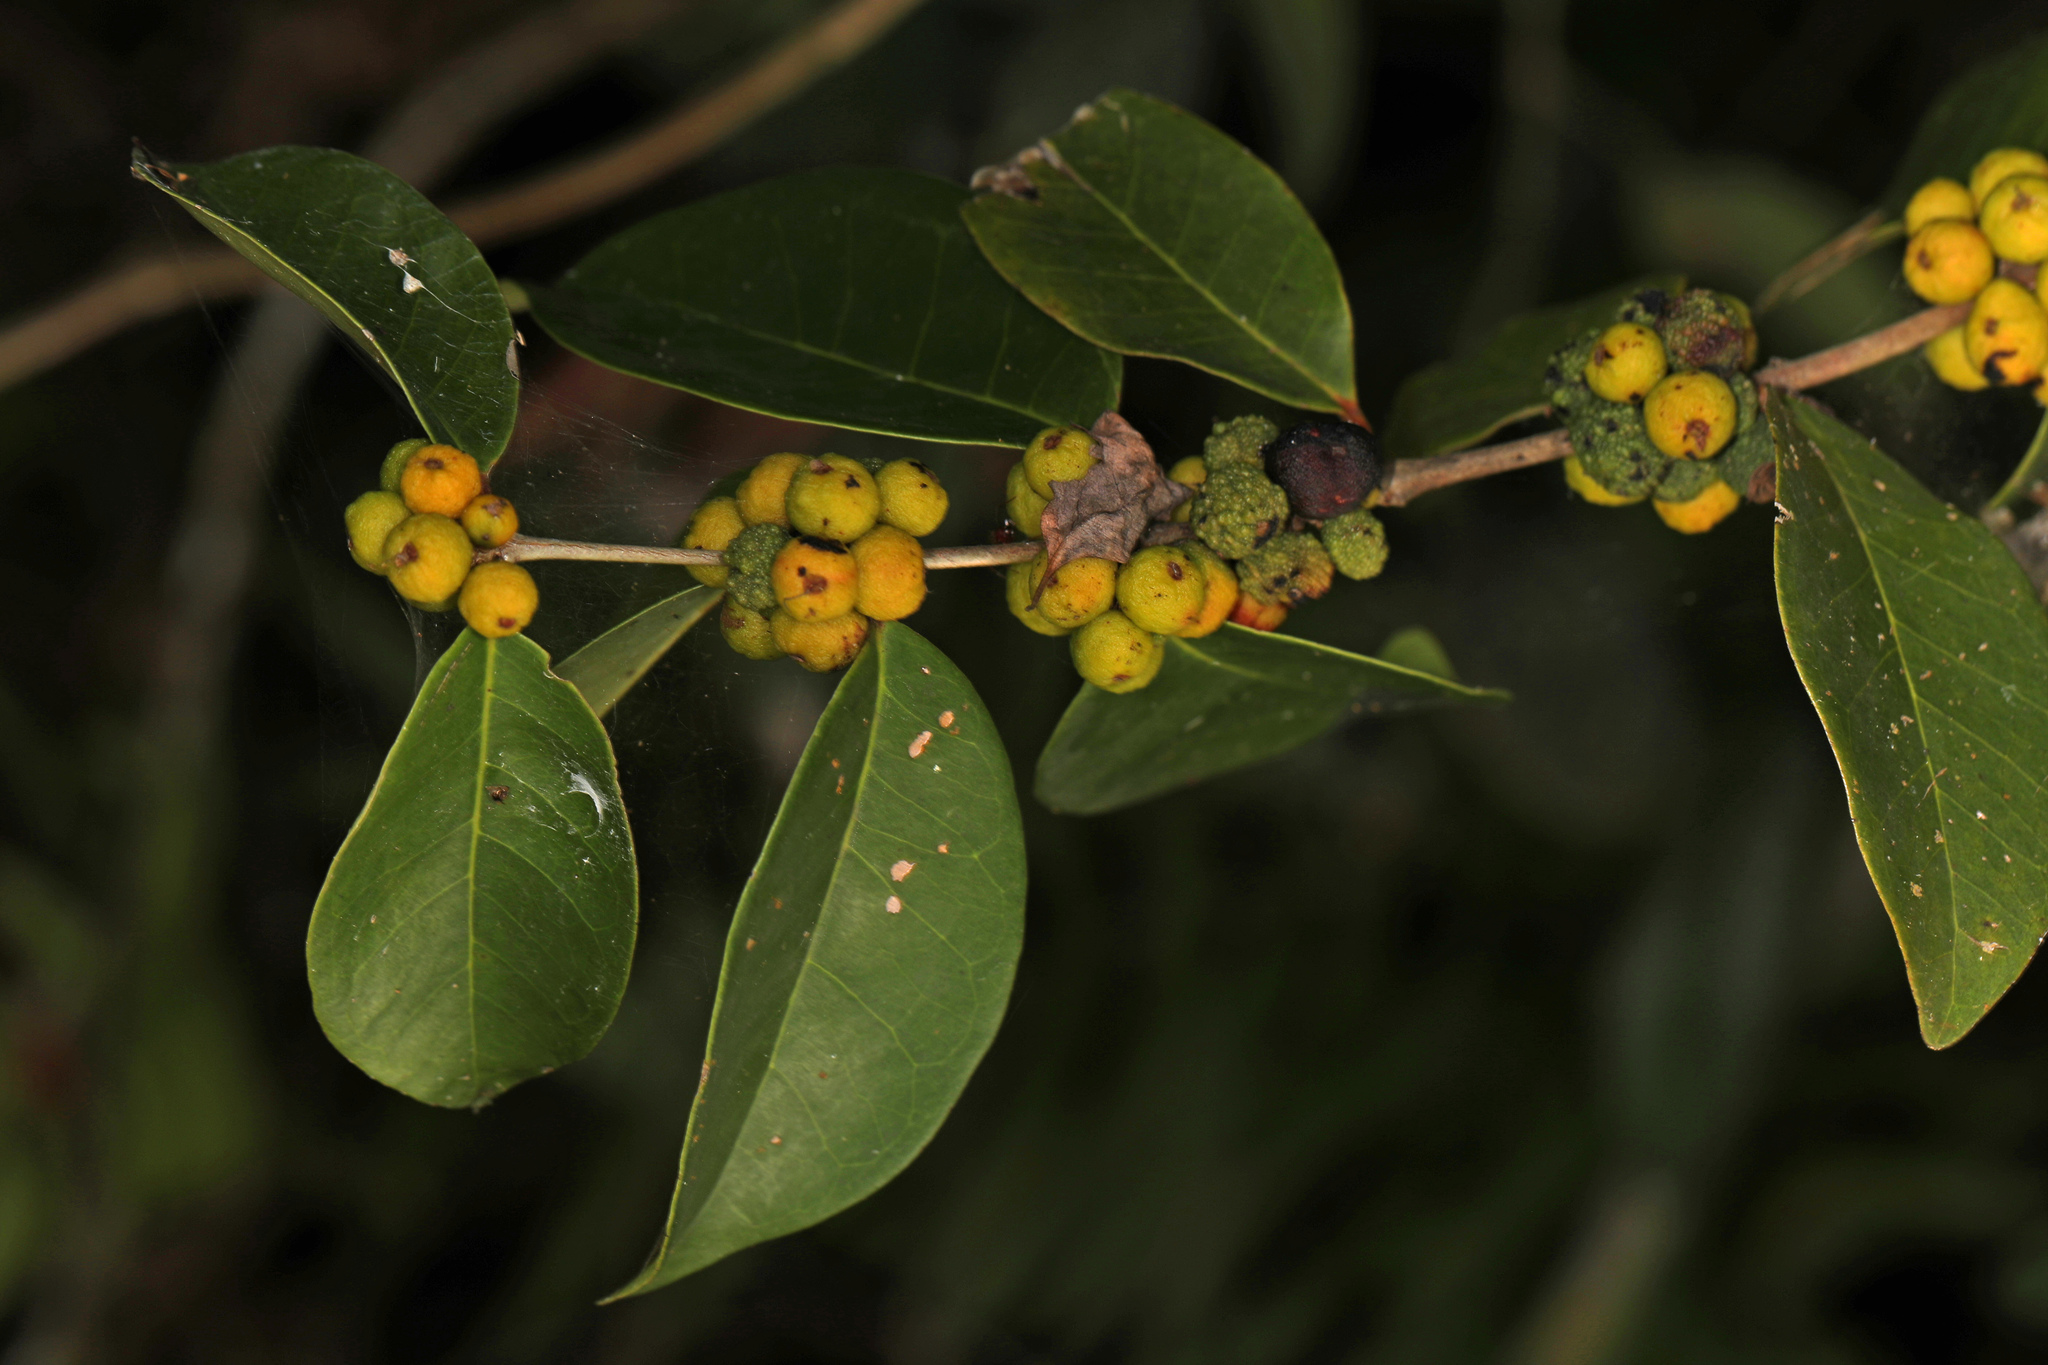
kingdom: Plantae
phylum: Tracheophyta
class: Magnoliopsida
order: Myrtales
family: Myrtaceae
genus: Eugenia
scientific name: Eugenia axillaris
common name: Choaky berry
